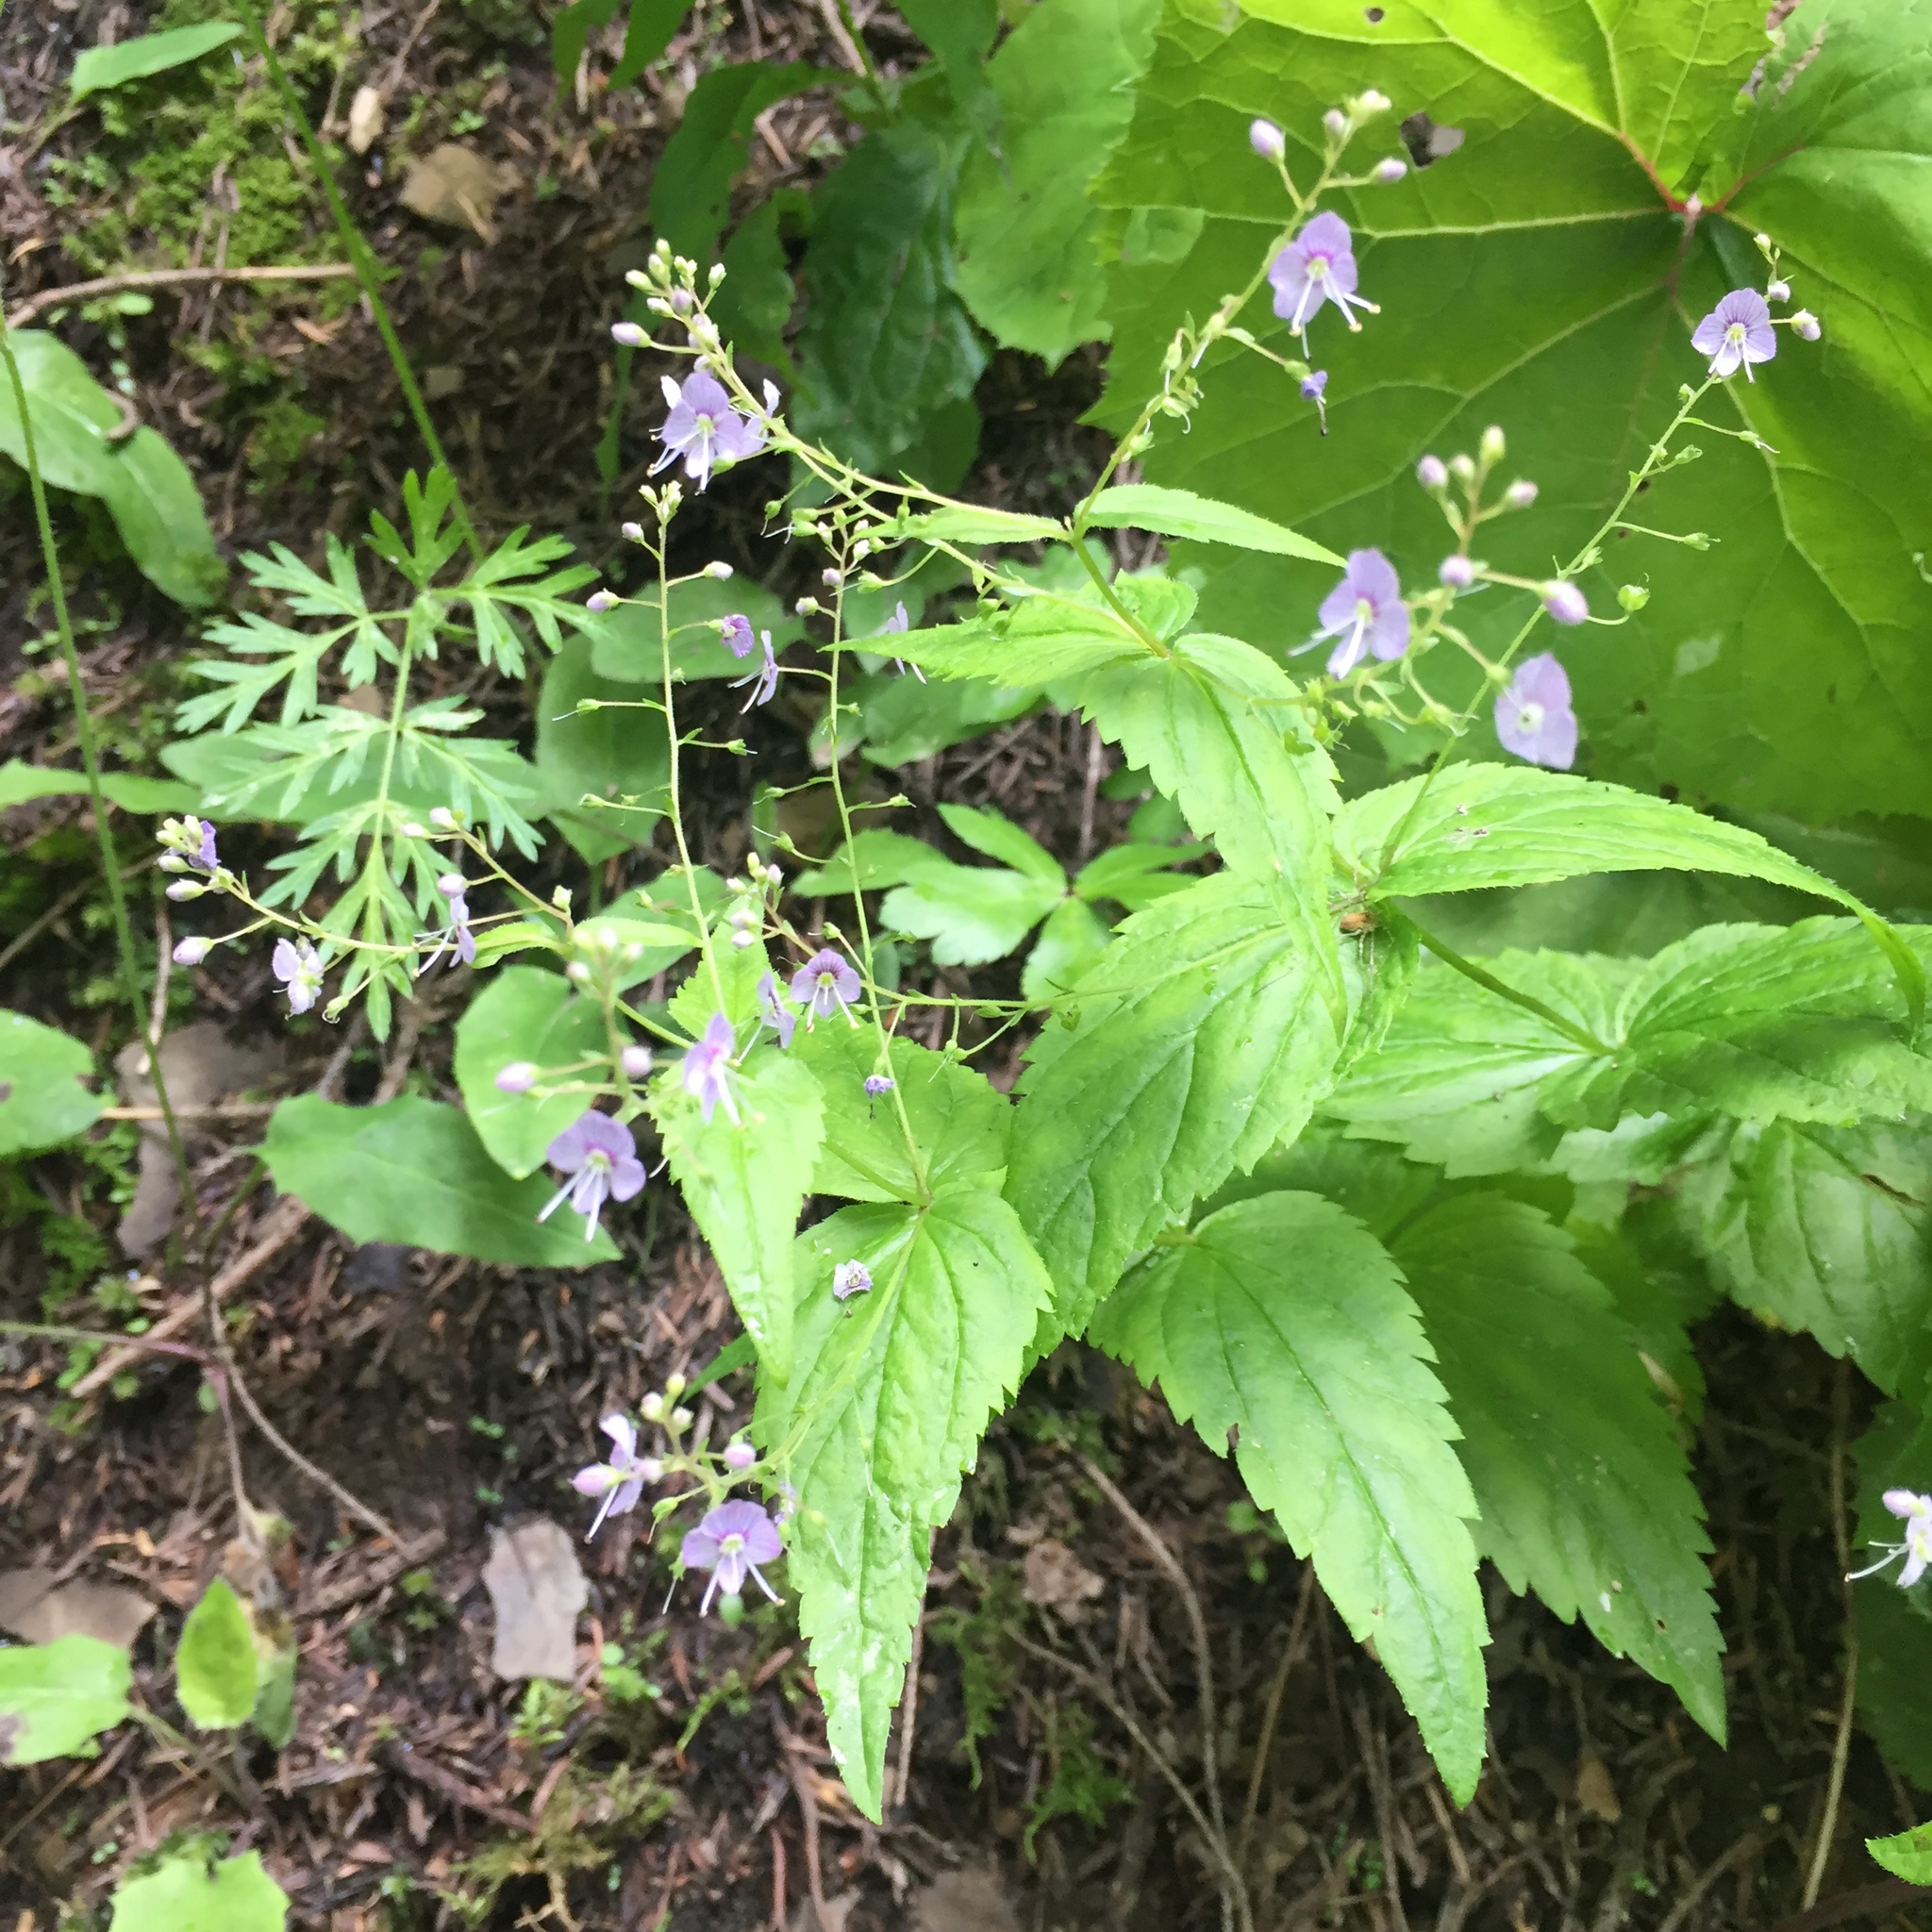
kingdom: Plantae
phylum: Tracheophyta
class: Magnoliopsida
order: Lamiales
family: Plantaginaceae
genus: Veronica
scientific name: Veronica urticifolia
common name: Nettle-leaf speedwell
